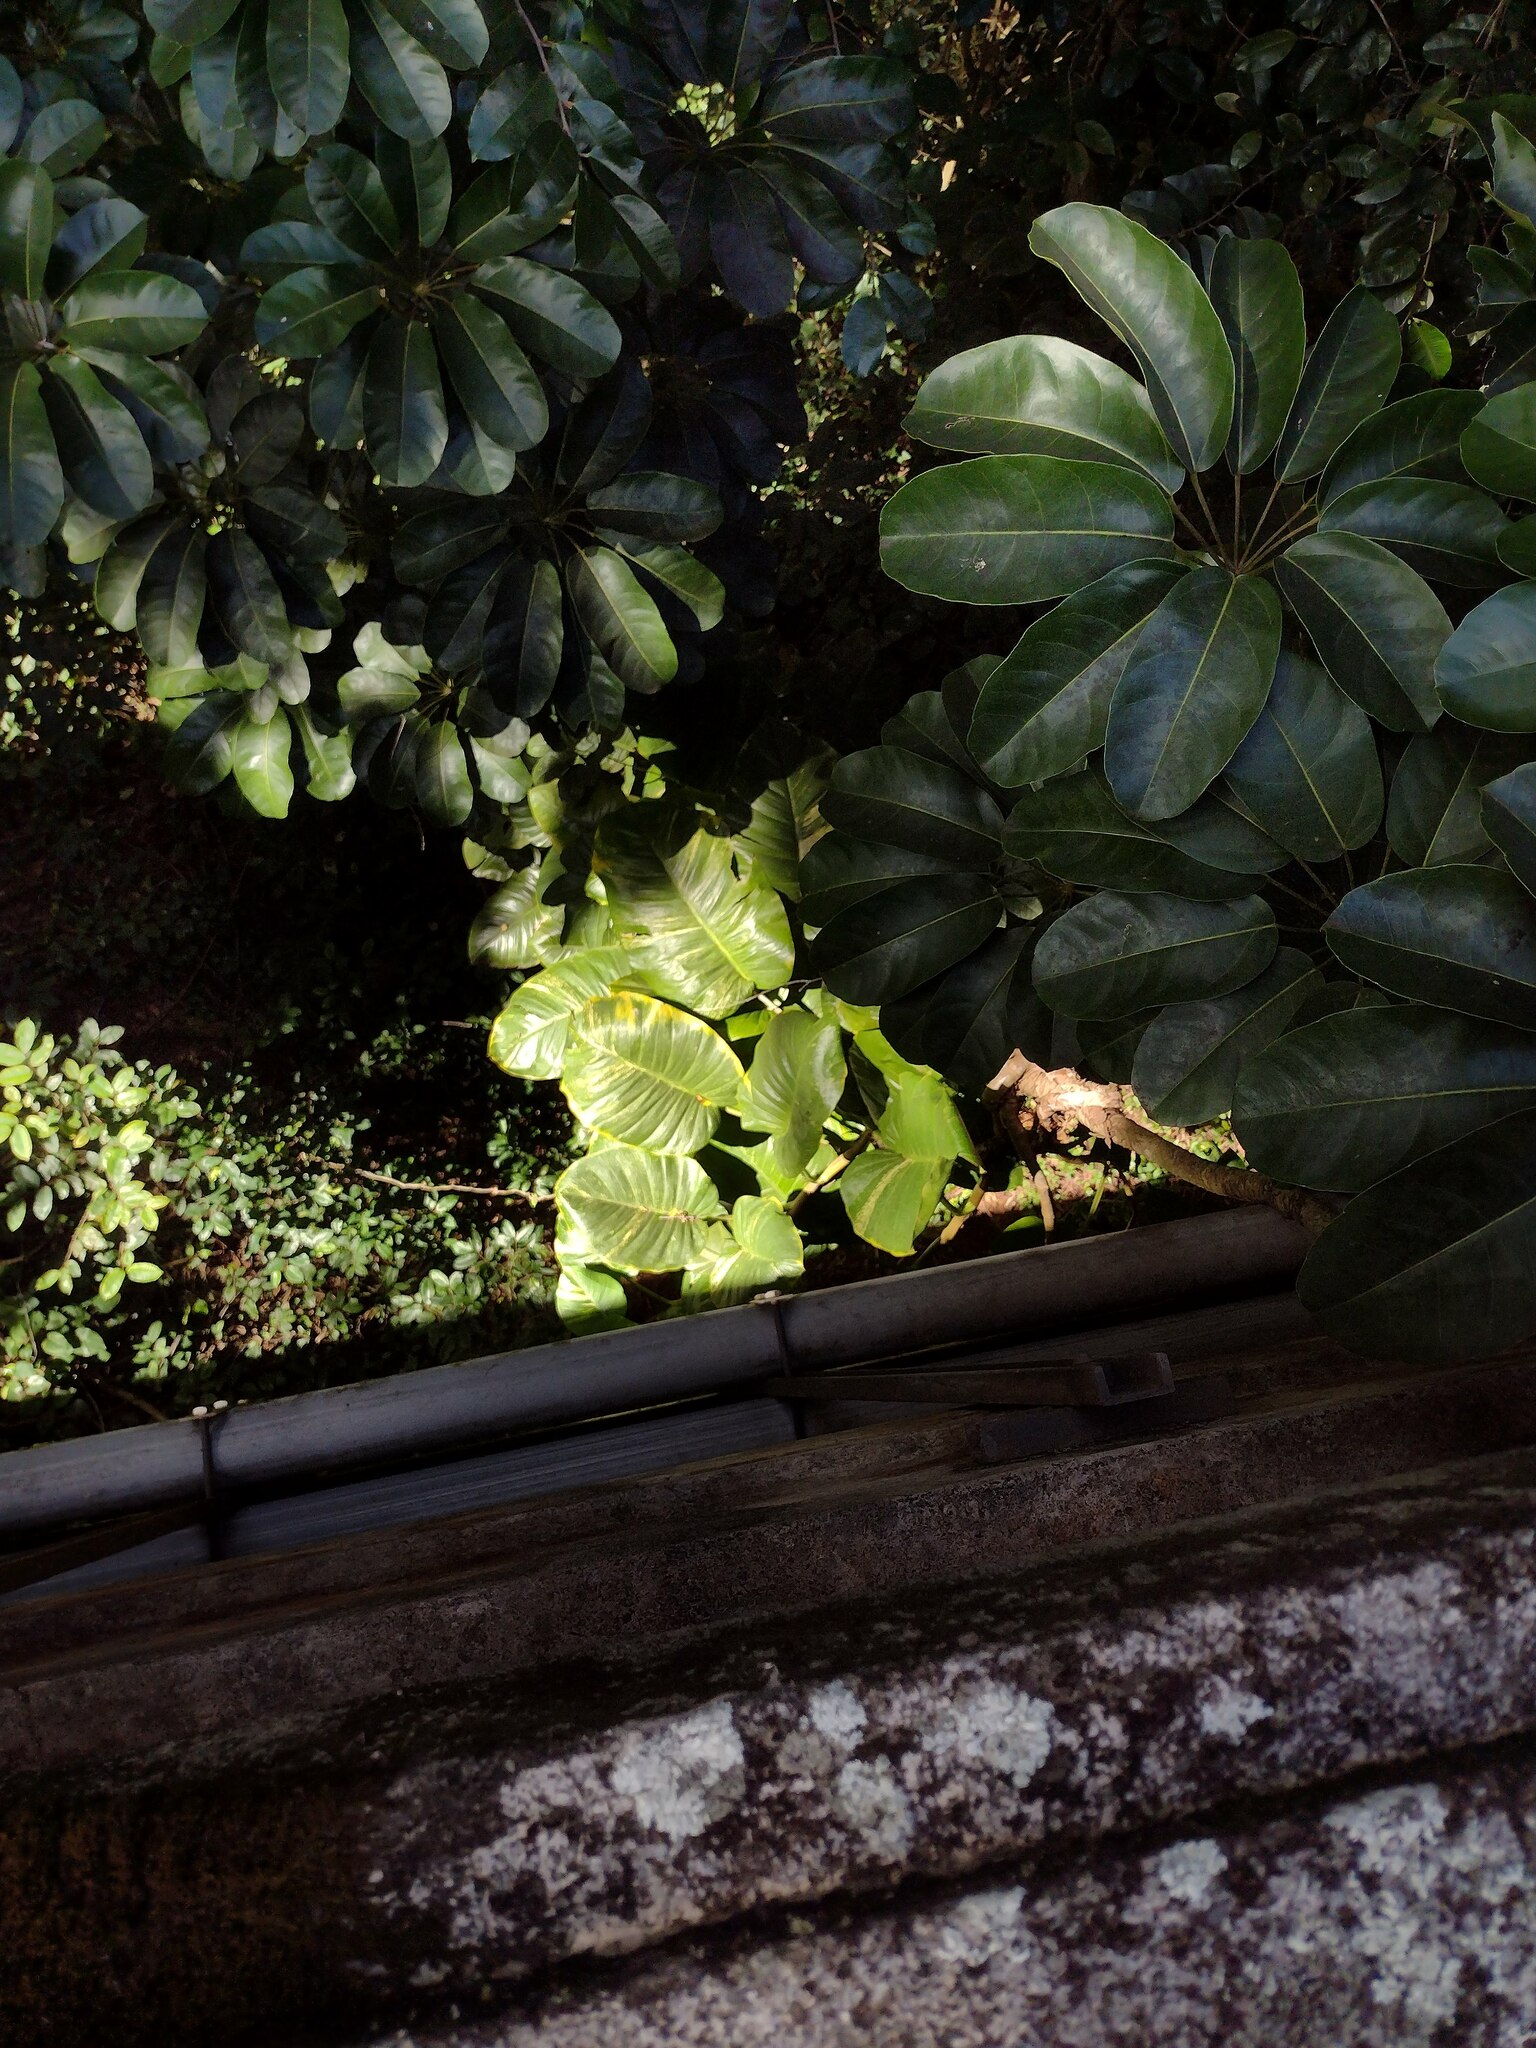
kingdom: Plantae
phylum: Tracheophyta
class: Liliopsida
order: Alismatales
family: Araceae
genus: Epipremnum
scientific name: Epipremnum aureum
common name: Golden hunter's-robe
